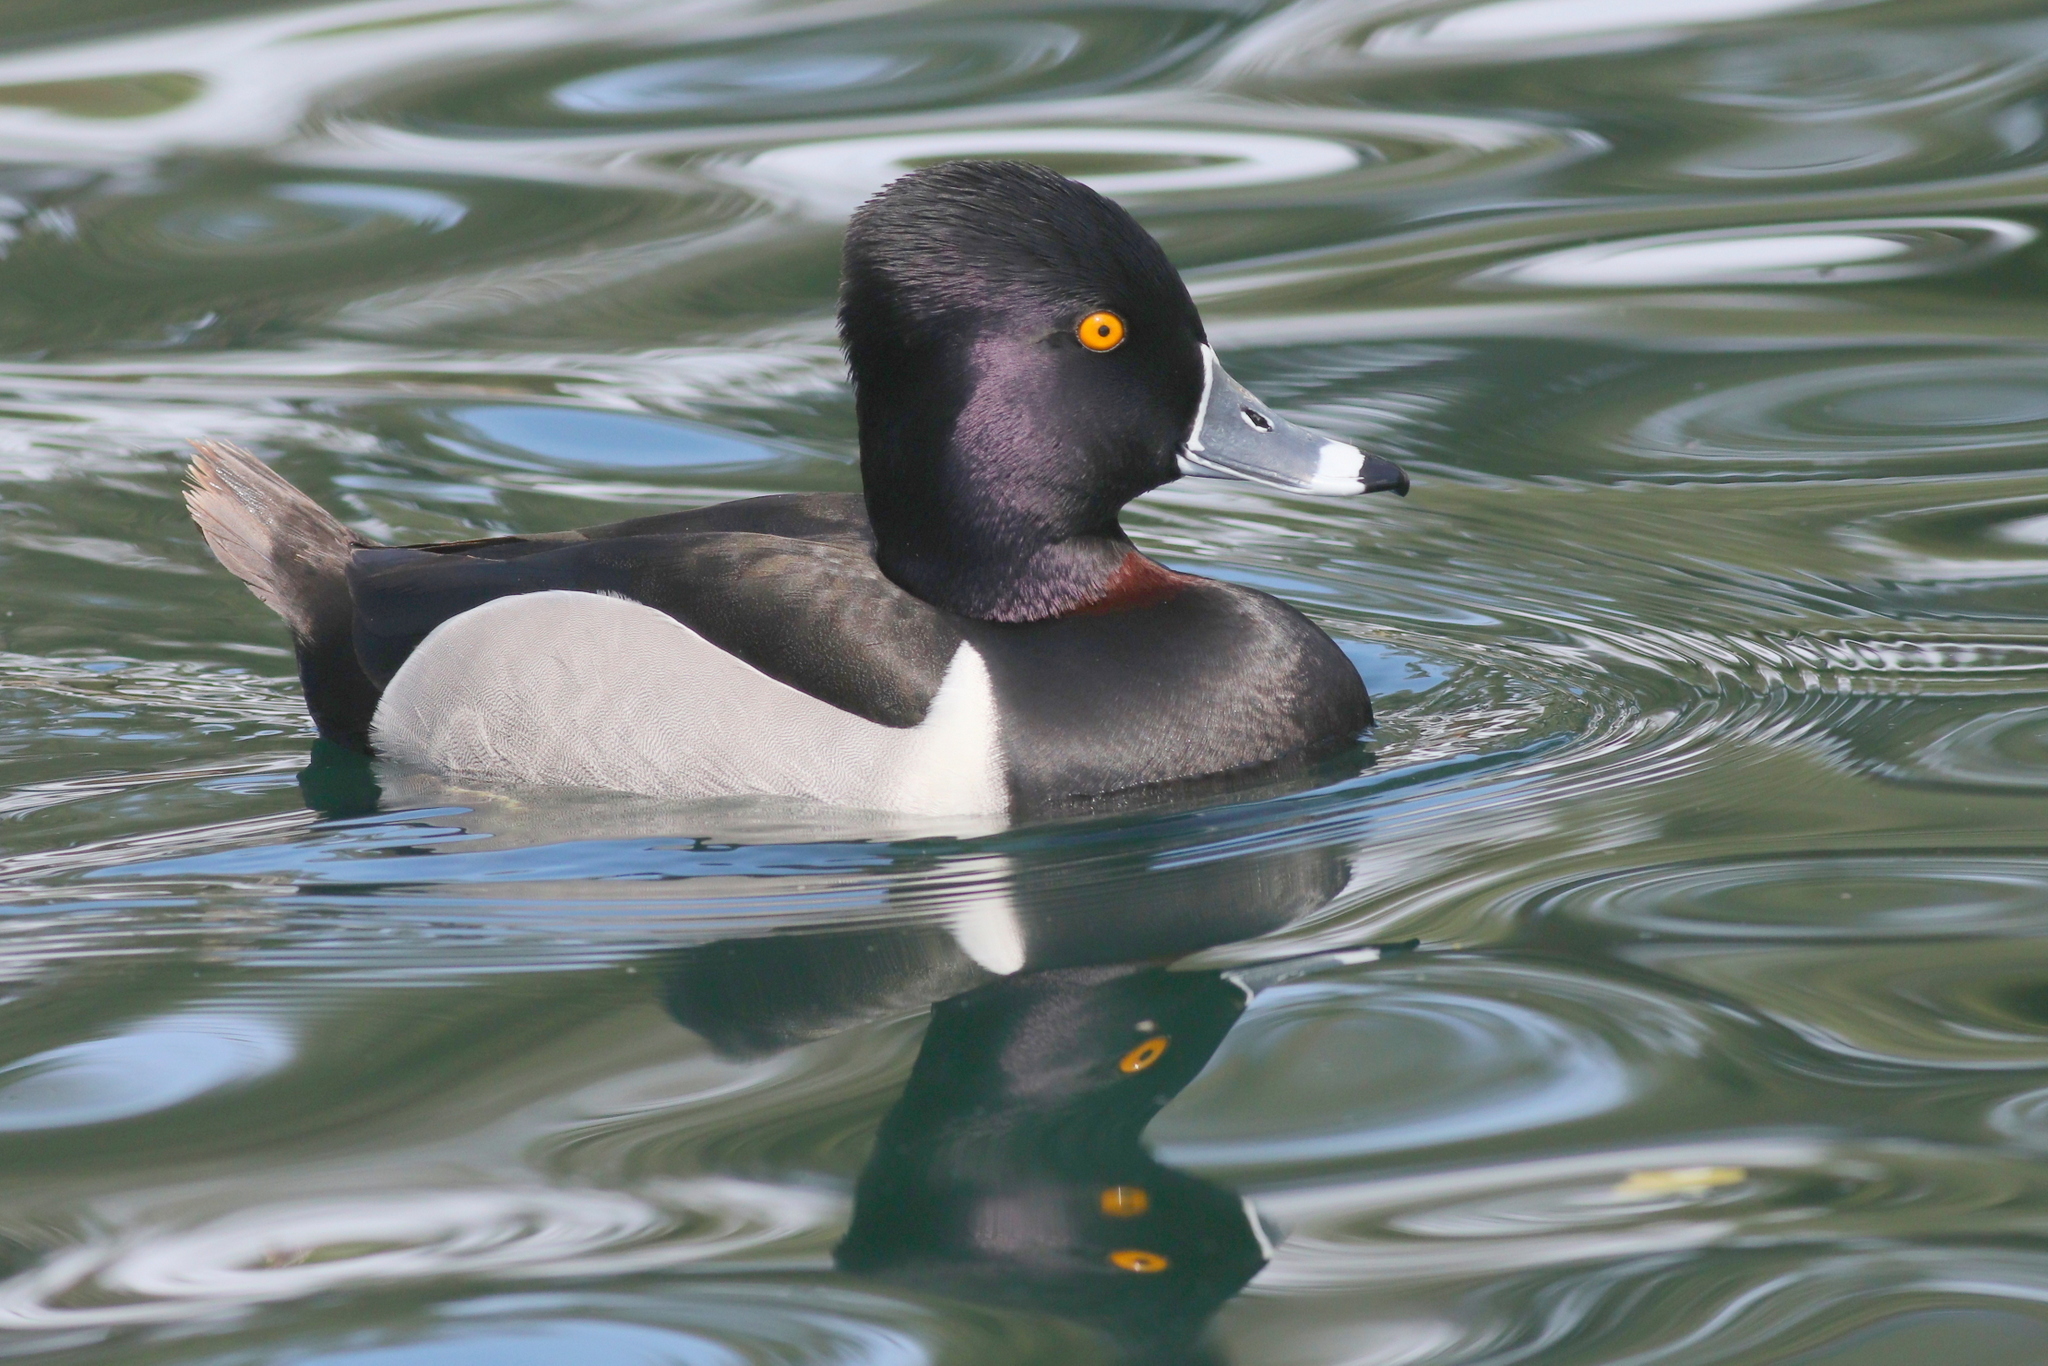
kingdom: Animalia
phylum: Chordata
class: Aves
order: Anseriformes
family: Anatidae
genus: Aythya
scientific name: Aythya collaris
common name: Ring-necked duck
